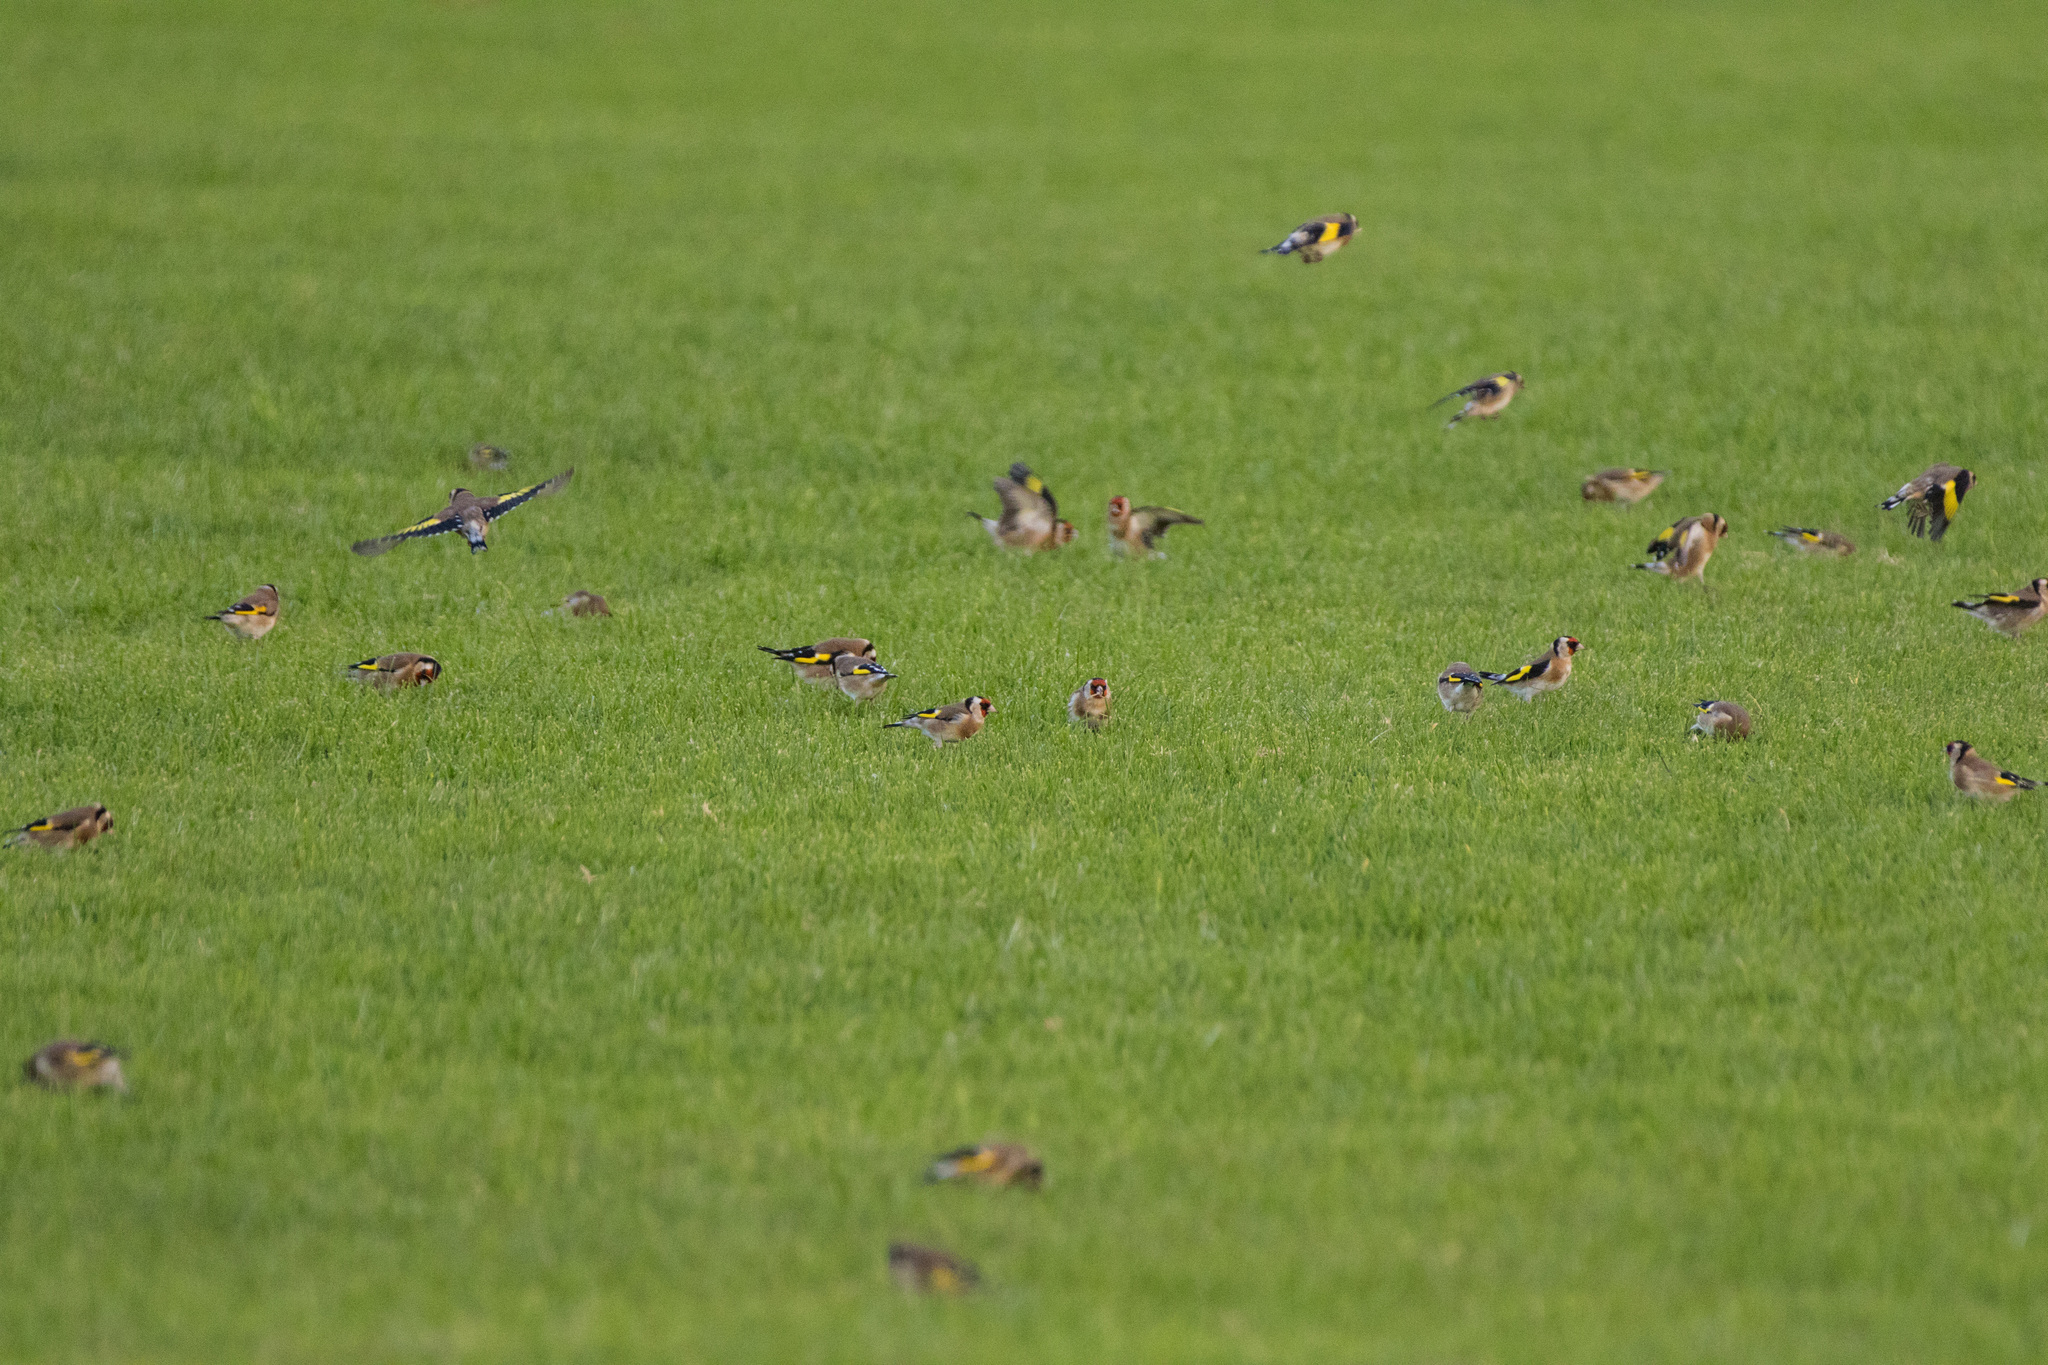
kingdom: Animalia
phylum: Chordata
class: Aves
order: Passeriformes
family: Fringillidae
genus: Carduelis
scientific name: Carduelis carduelis
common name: European goldfinch
